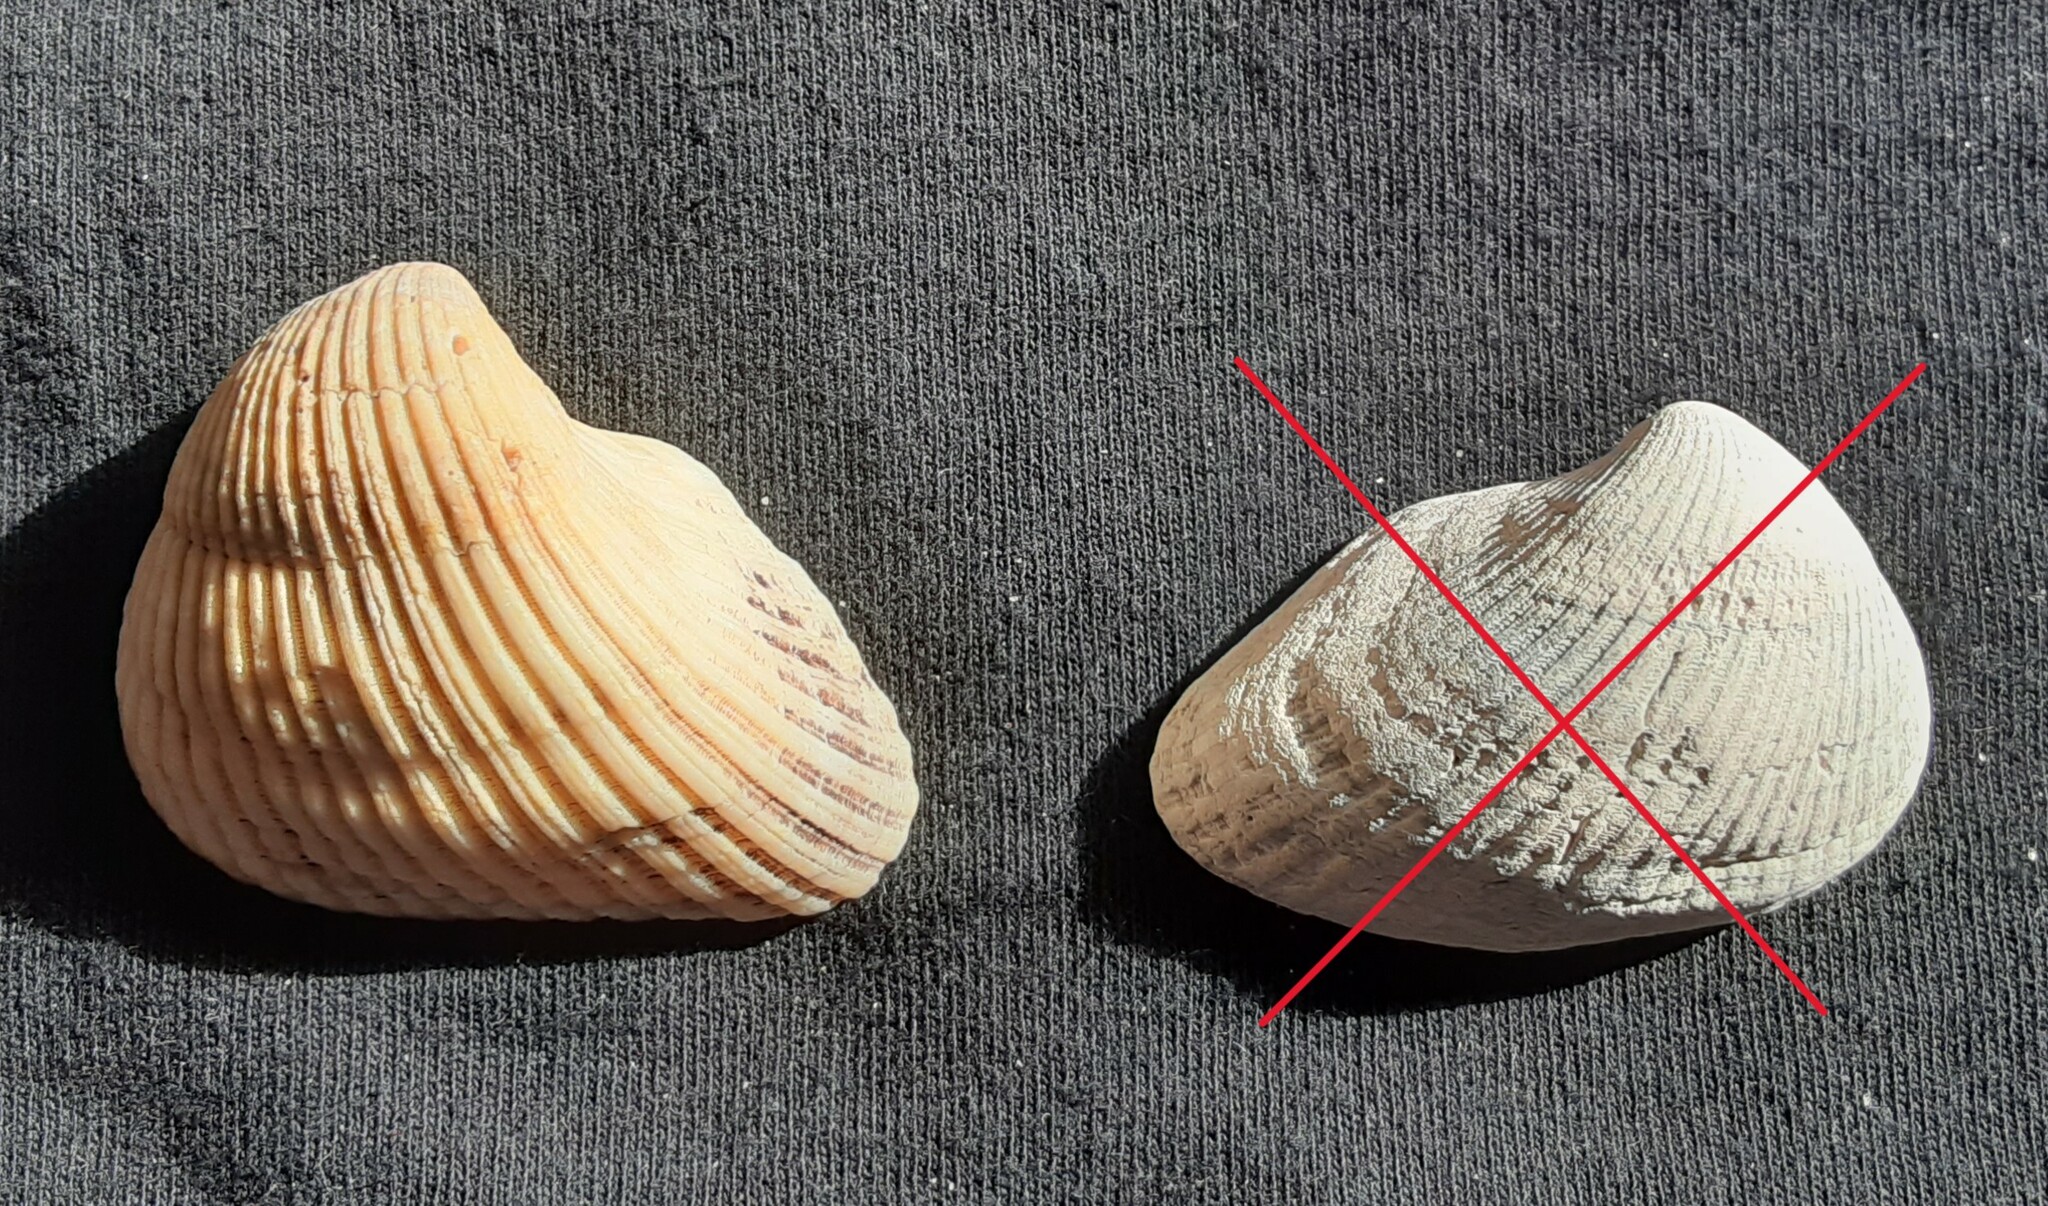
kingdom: Animalia
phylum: Mollusca
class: Bivalvia
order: Arcida
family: Noetiidae
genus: Noetia
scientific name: Noetia ponderosa
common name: Ponderous ark
